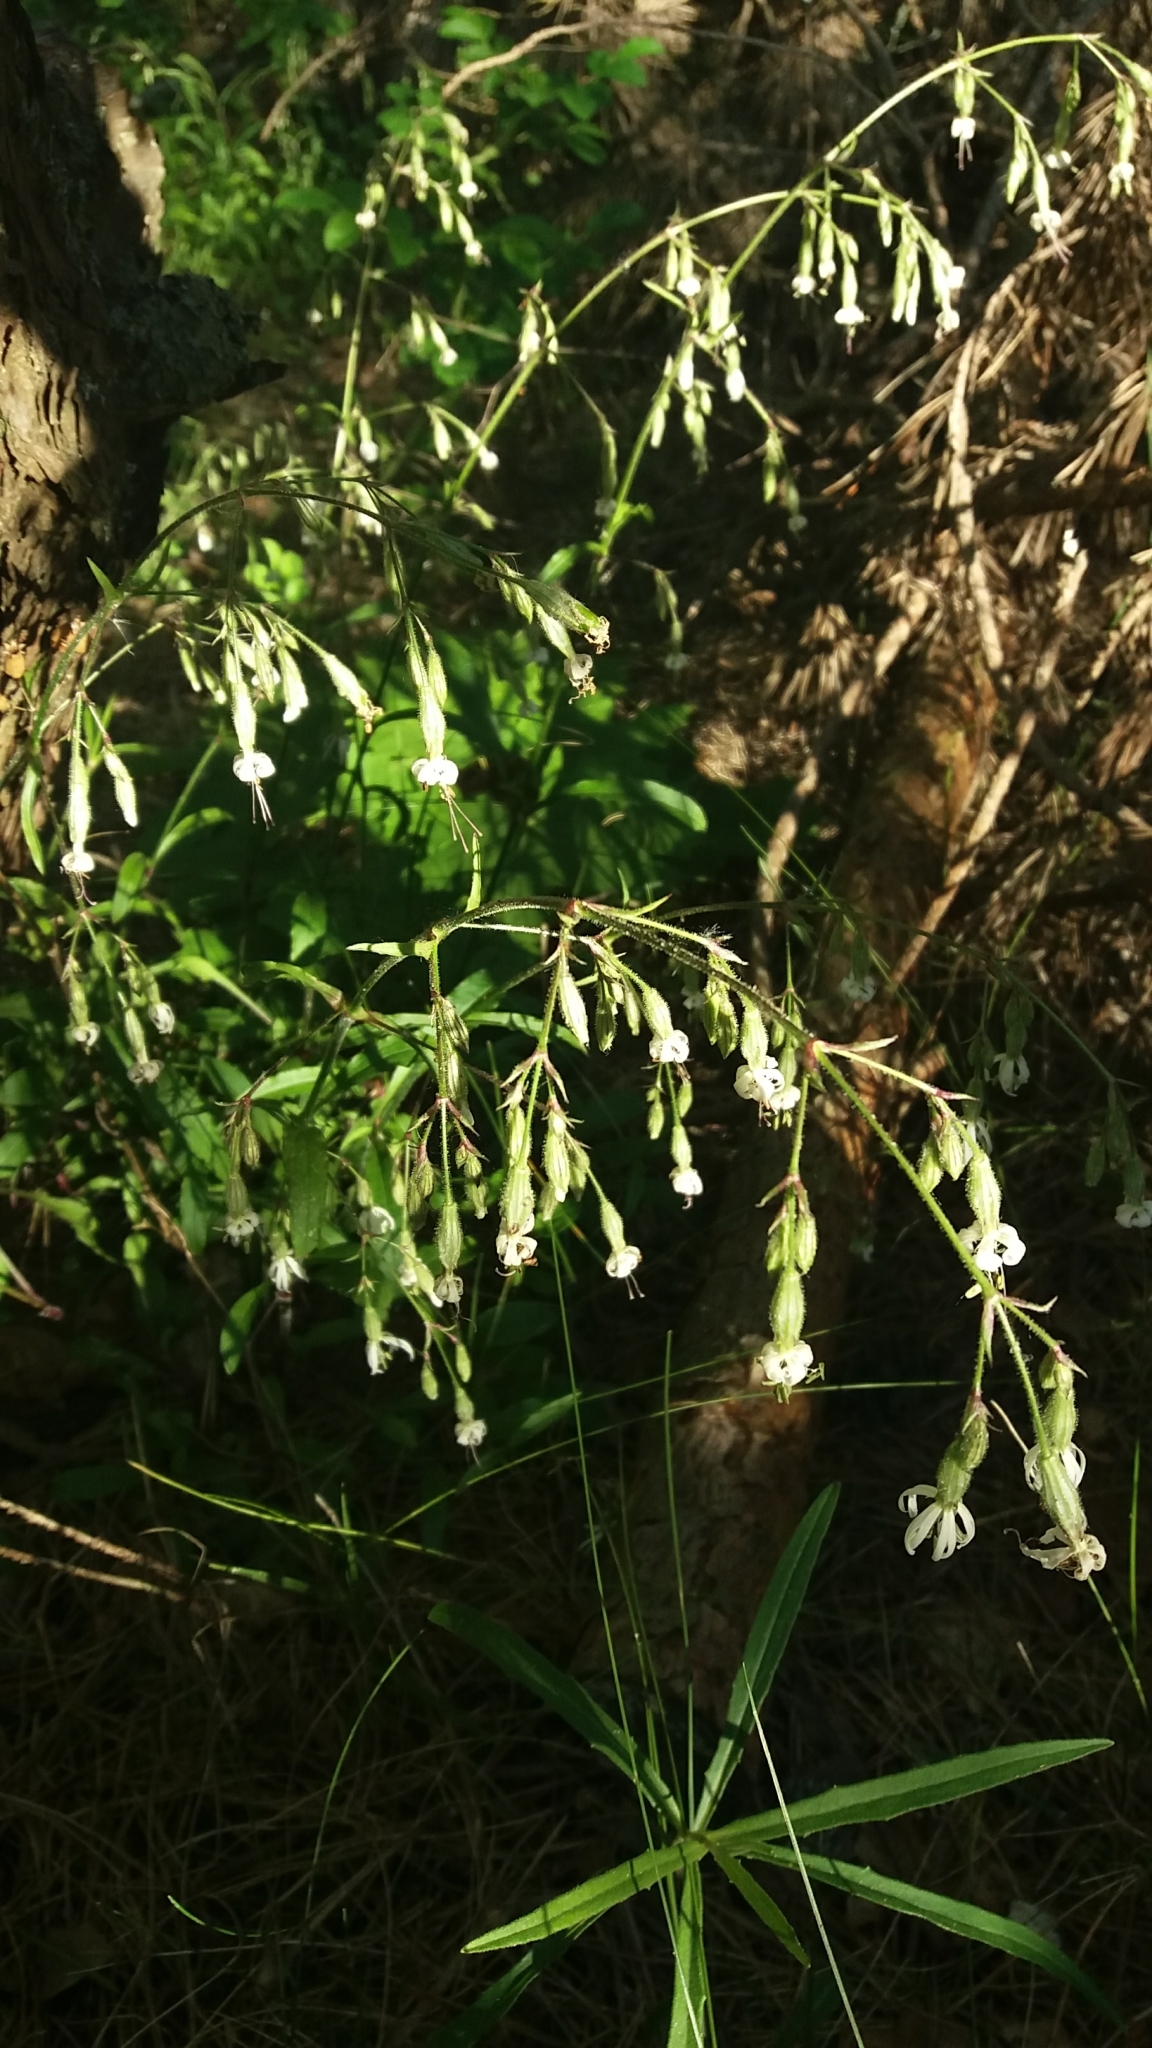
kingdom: Plantae
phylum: Tracheophyta
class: Magnoliopsida
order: Caryophyllales
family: Caryophyllaceae
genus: Silene
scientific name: Silene nutans
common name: Nottingham catchfly
